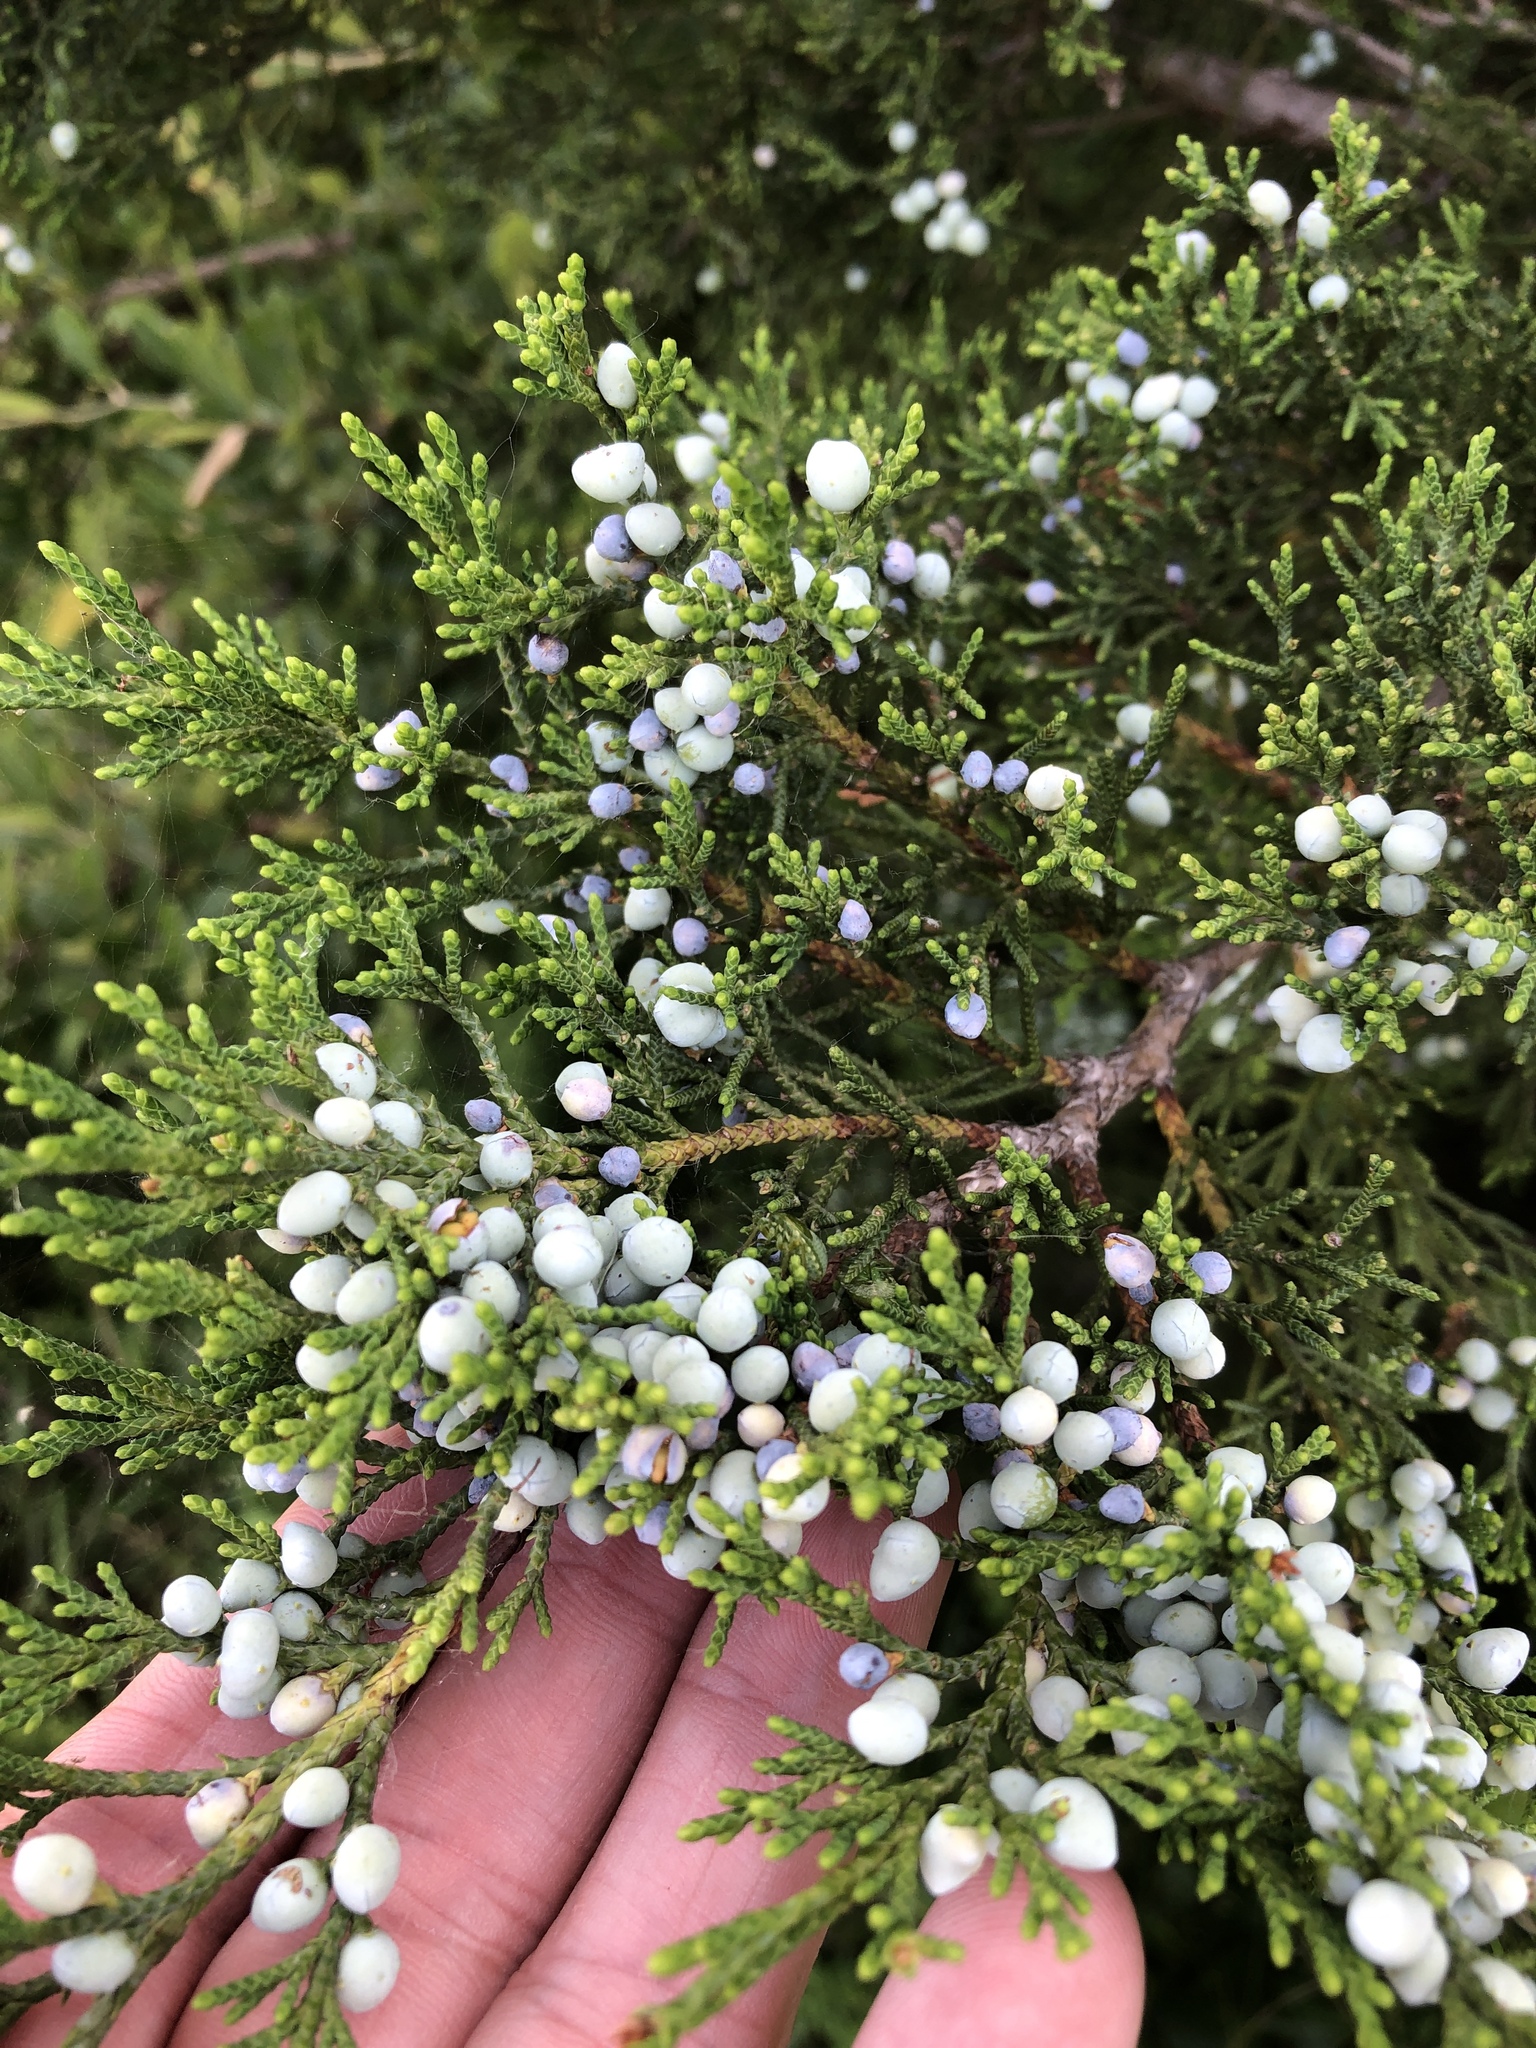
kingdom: Plantae
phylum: Tracheophyta
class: Pinopsida
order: Pinales
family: Cupressaceae
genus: Juniperus
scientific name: Juniperus virginiana
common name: Red juniper
